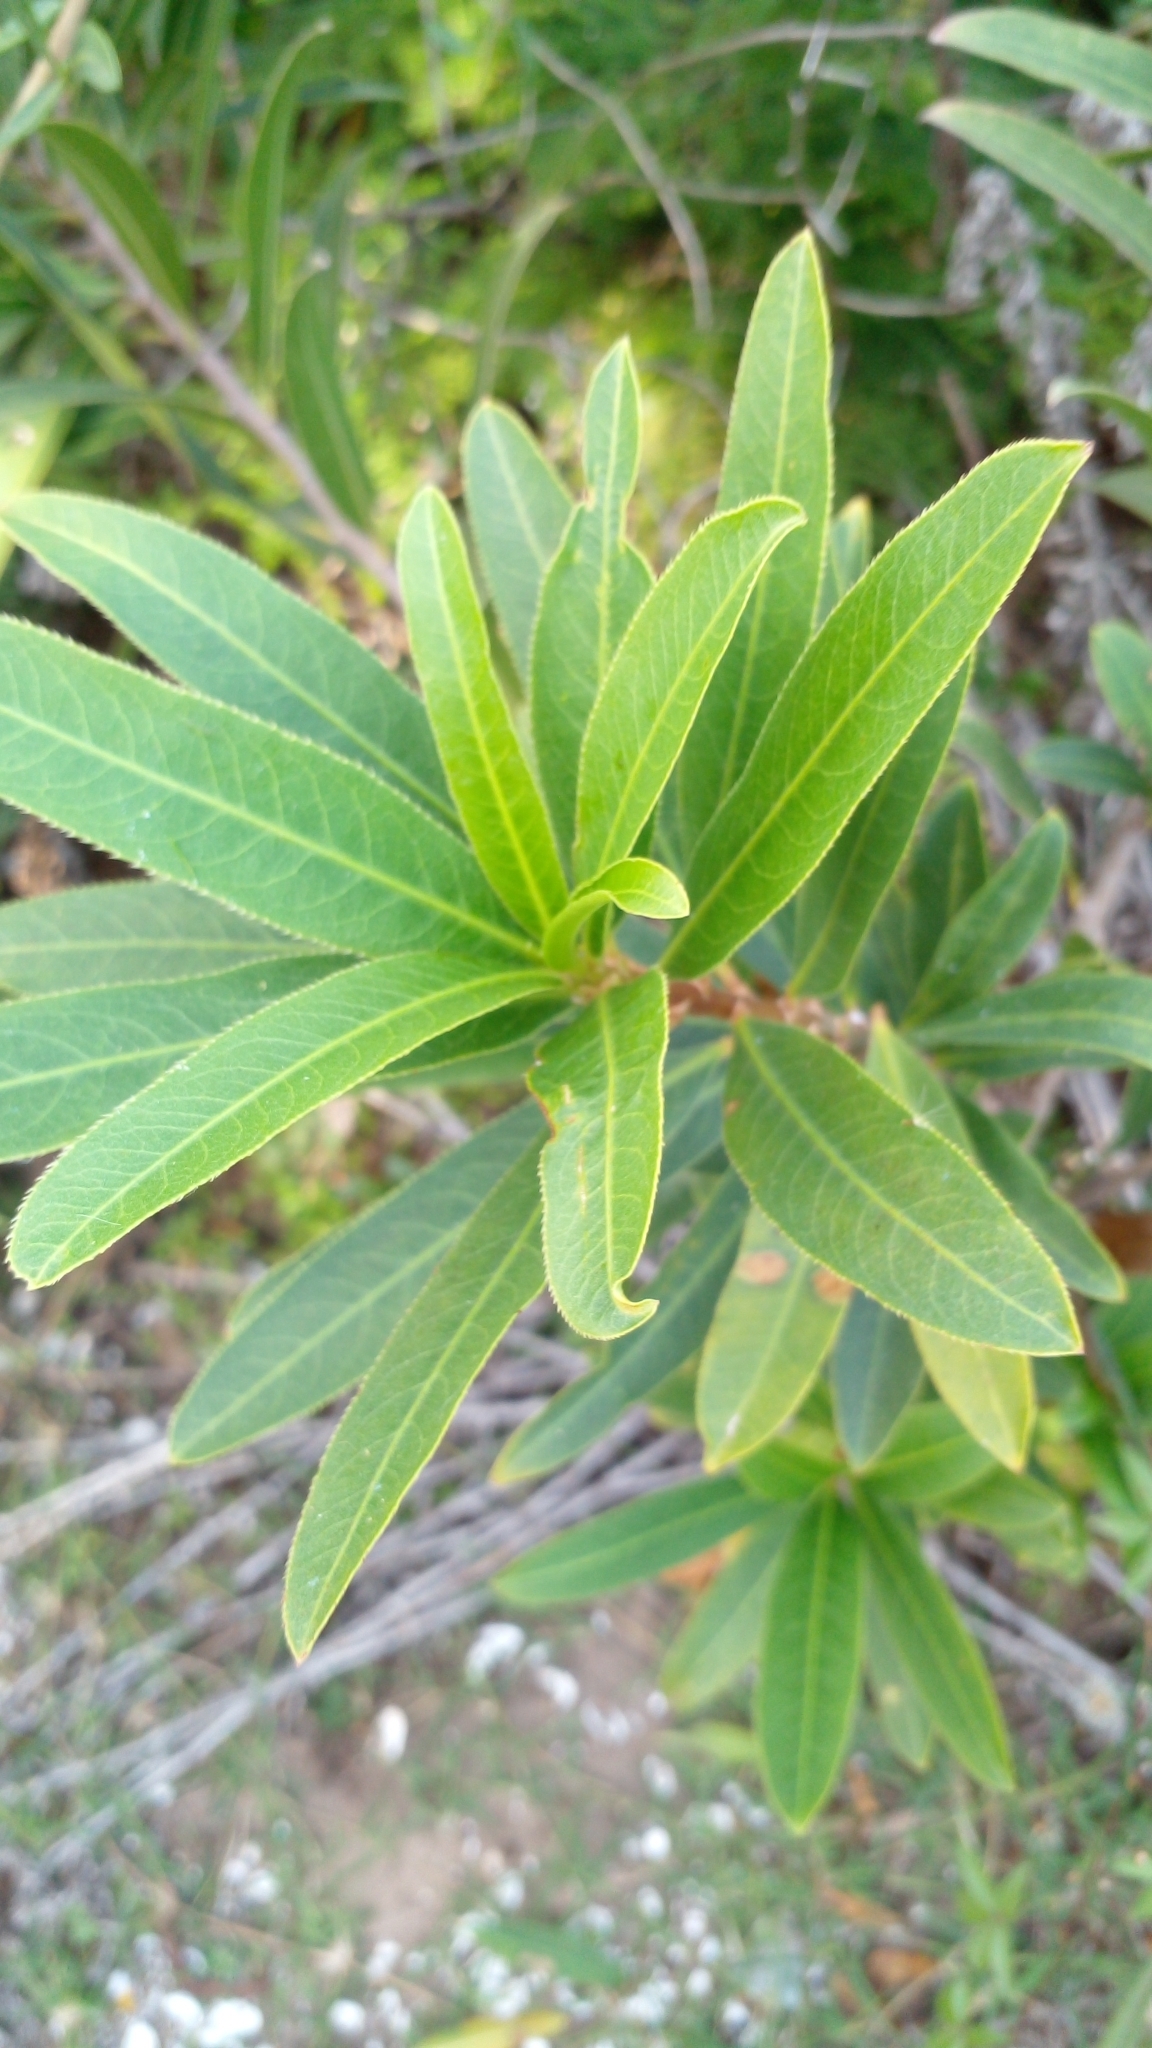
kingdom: Plantae
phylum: Tracheophyta
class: Magnoliopsida
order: Malpighiales
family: Euphorbiaceae
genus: Sapium
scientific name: Sapium glandulosum
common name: Milktree
